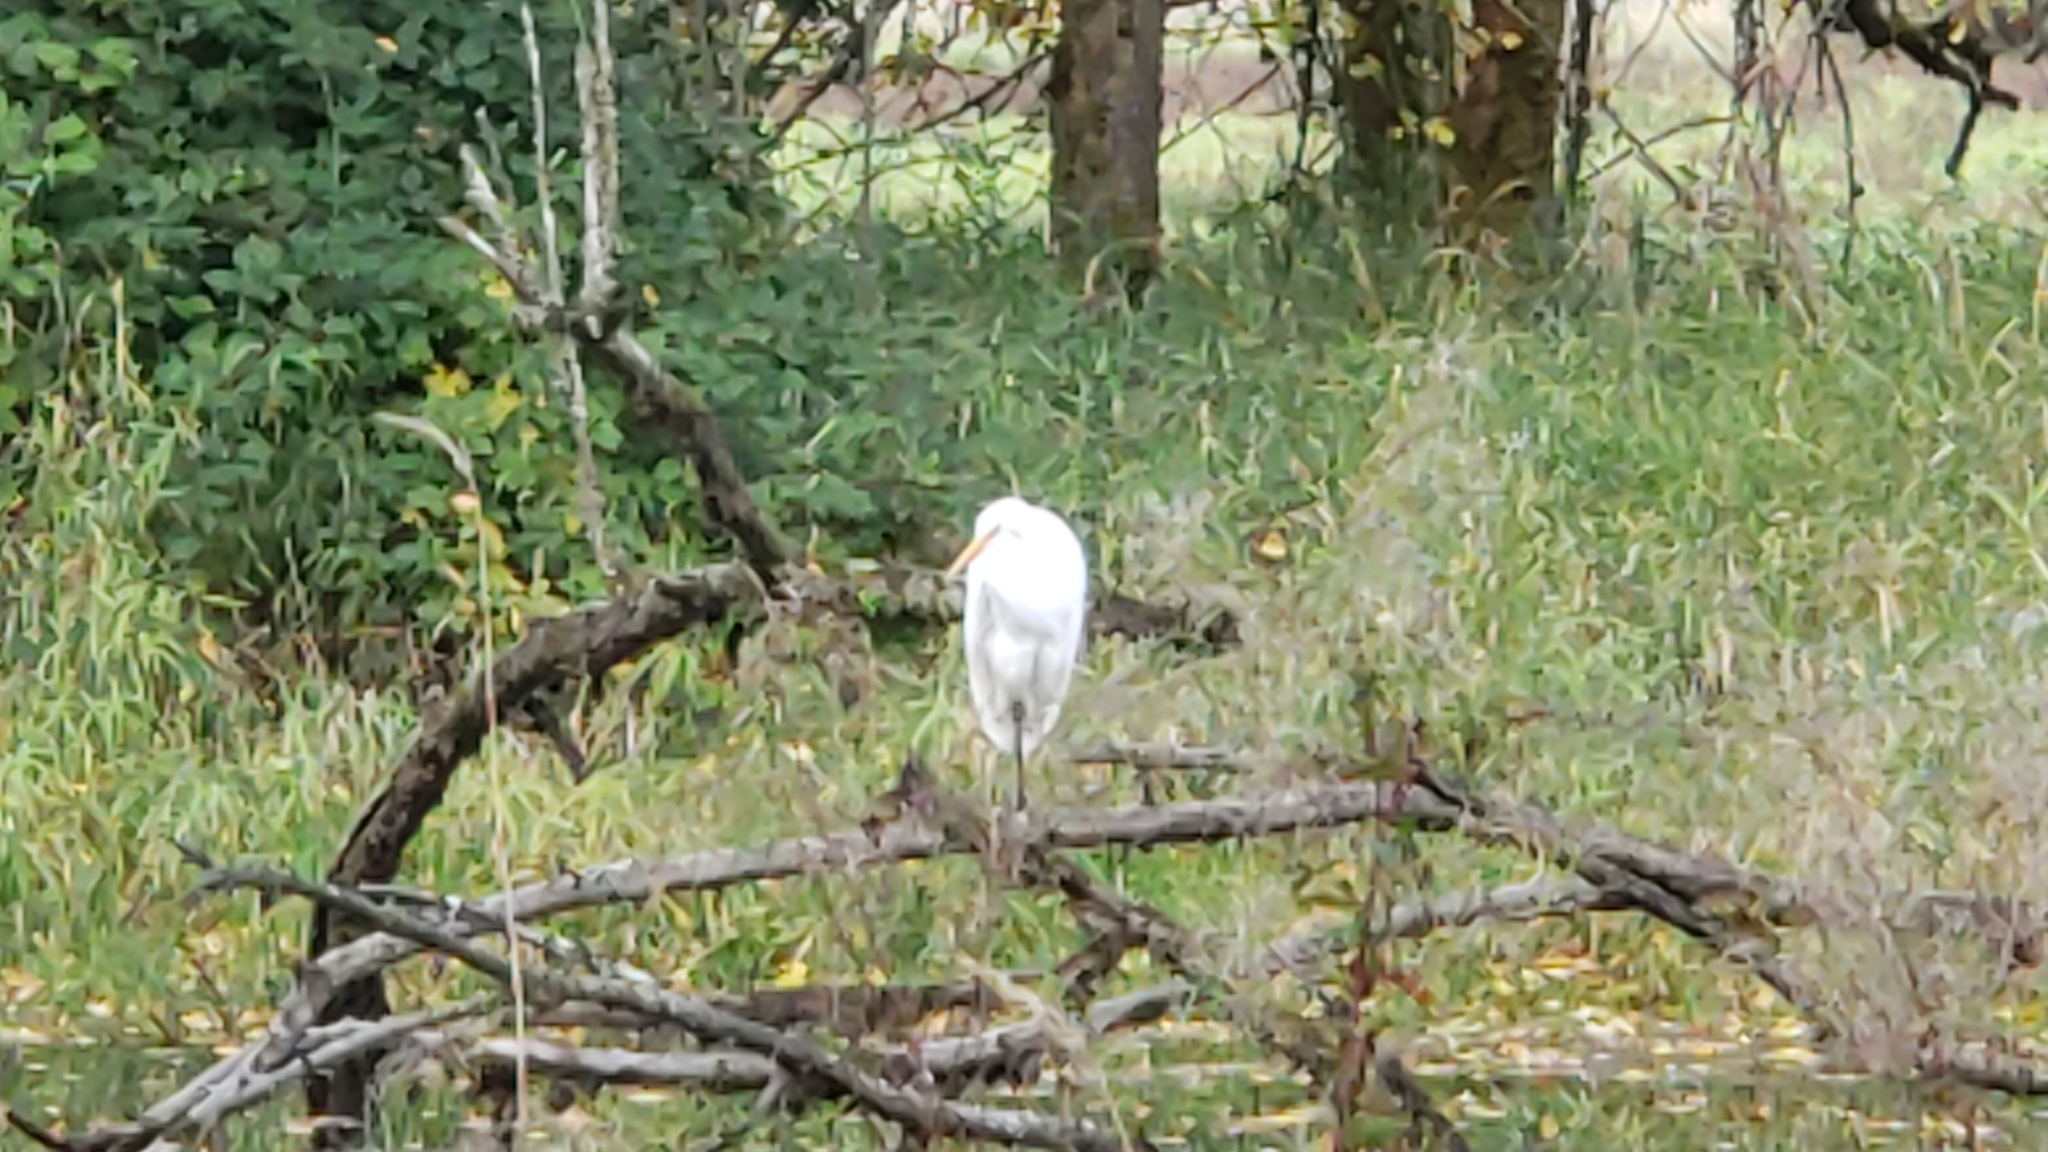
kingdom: Animalia
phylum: Chordata
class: Aves
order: Pelecaniformes
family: Ardeidae
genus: Ardea
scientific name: Ardea alba
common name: Great egret
